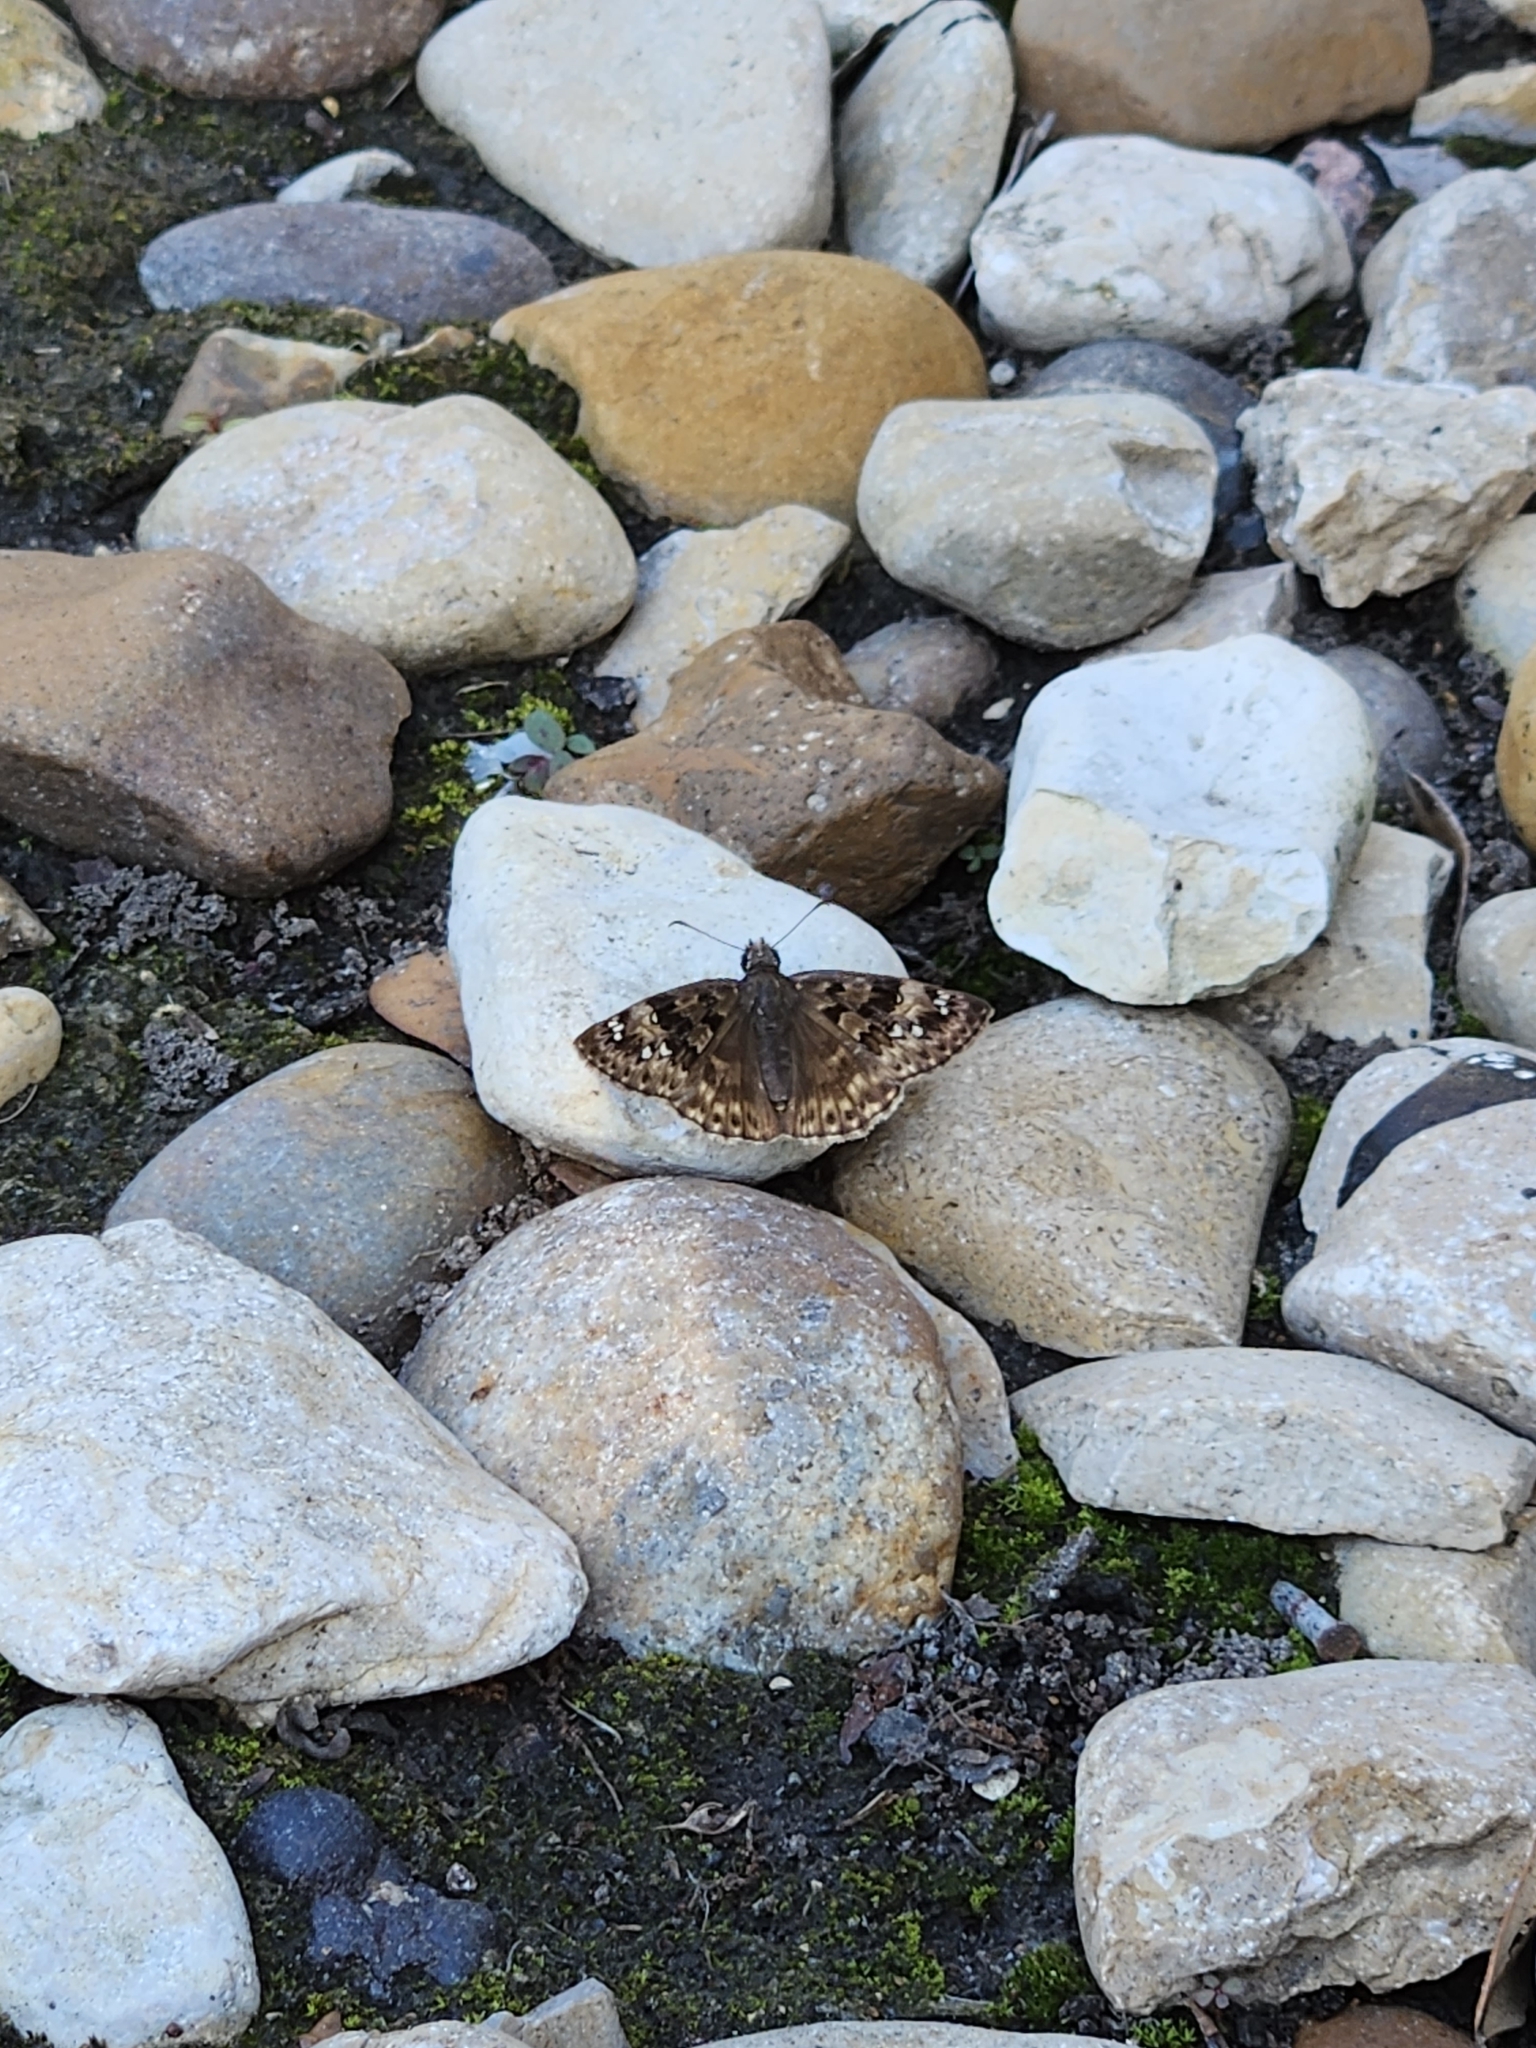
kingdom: Animalia
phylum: Arthropoda
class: Insecta
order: Lepidoptera
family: Hesperiidae
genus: Erynnis
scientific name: Erynnis horatius
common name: Horace's duskywing
